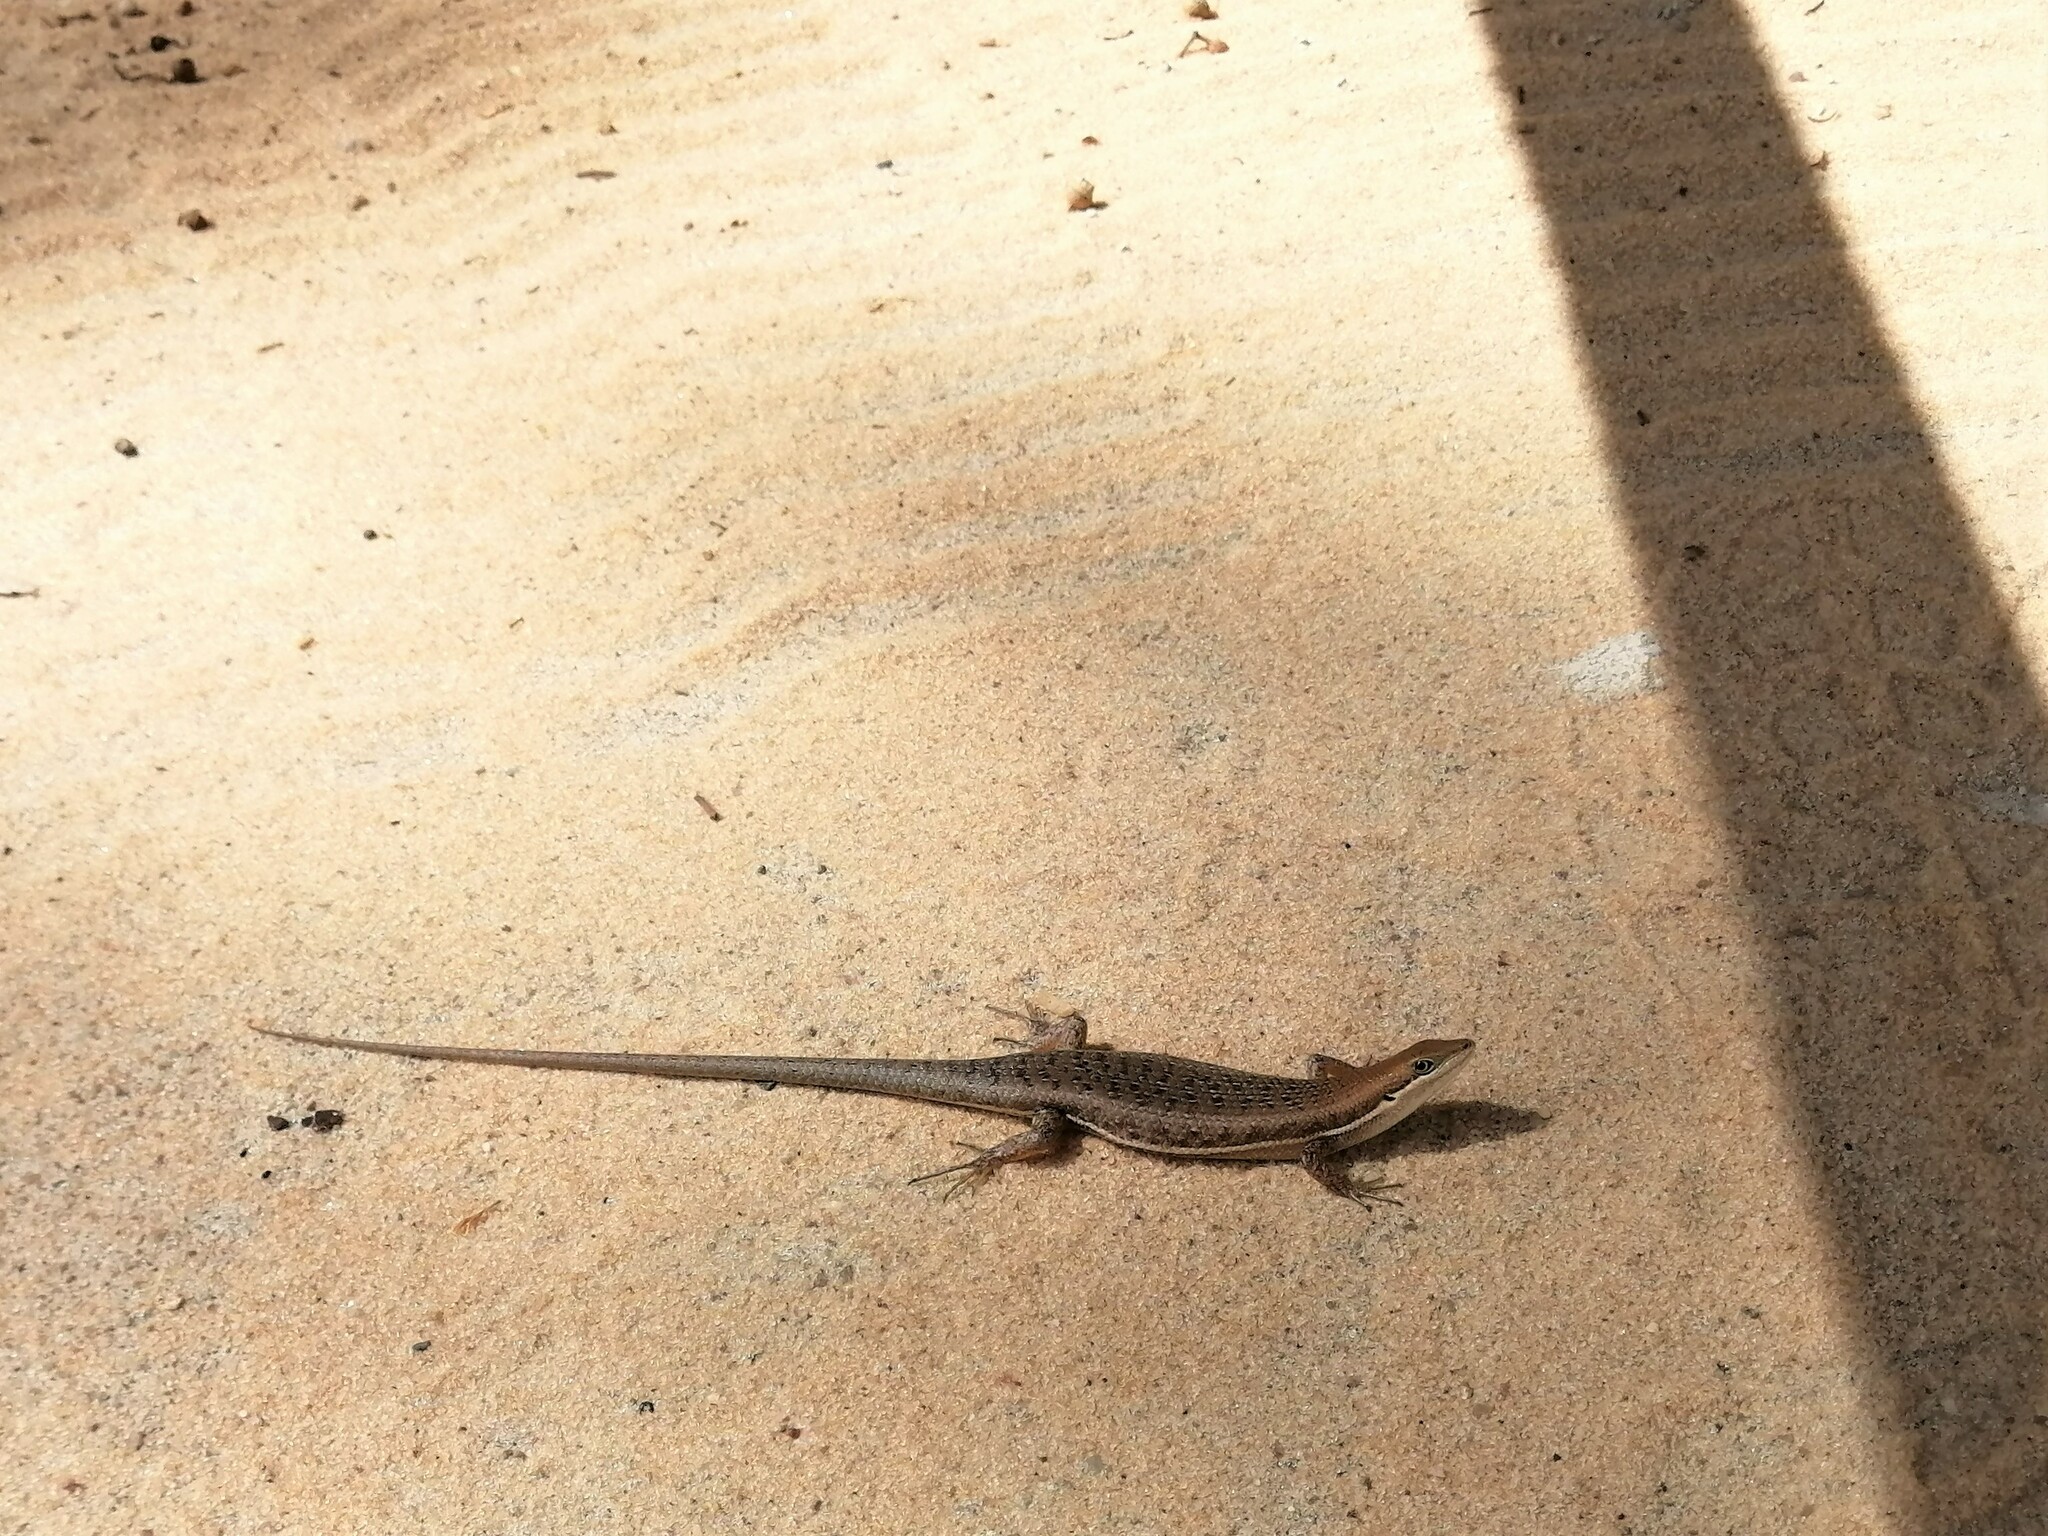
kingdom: Animalia
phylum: Chordata
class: Squamata
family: Scincidae
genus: Trachylepis
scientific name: Trachylepis varia
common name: Eastern variable skink
